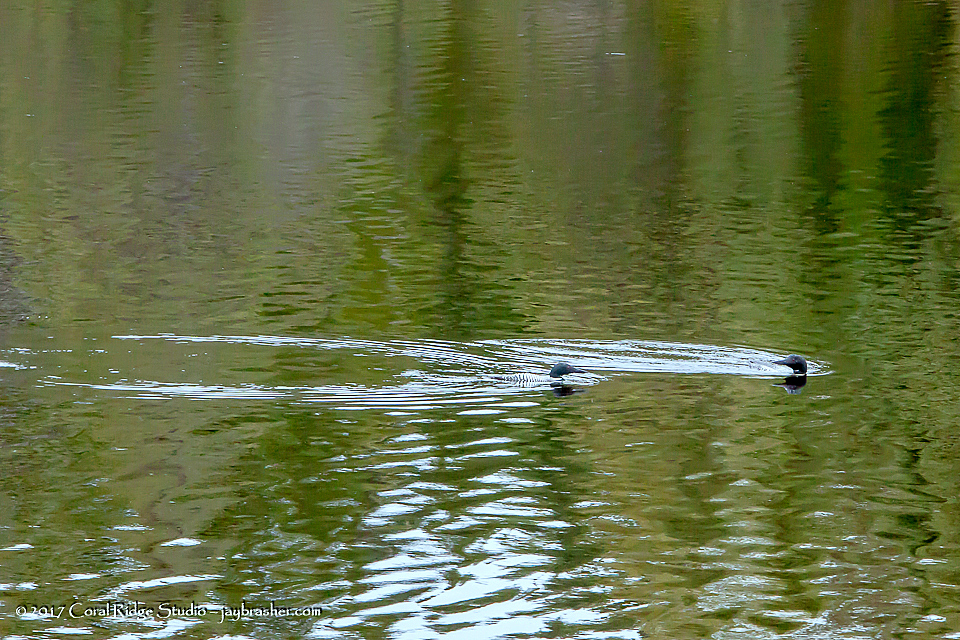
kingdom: Animalia
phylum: Chordata
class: Aves
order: Gaviiformes
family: Gaviidae
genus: Gavia
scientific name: Gavia immer
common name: Common loon
